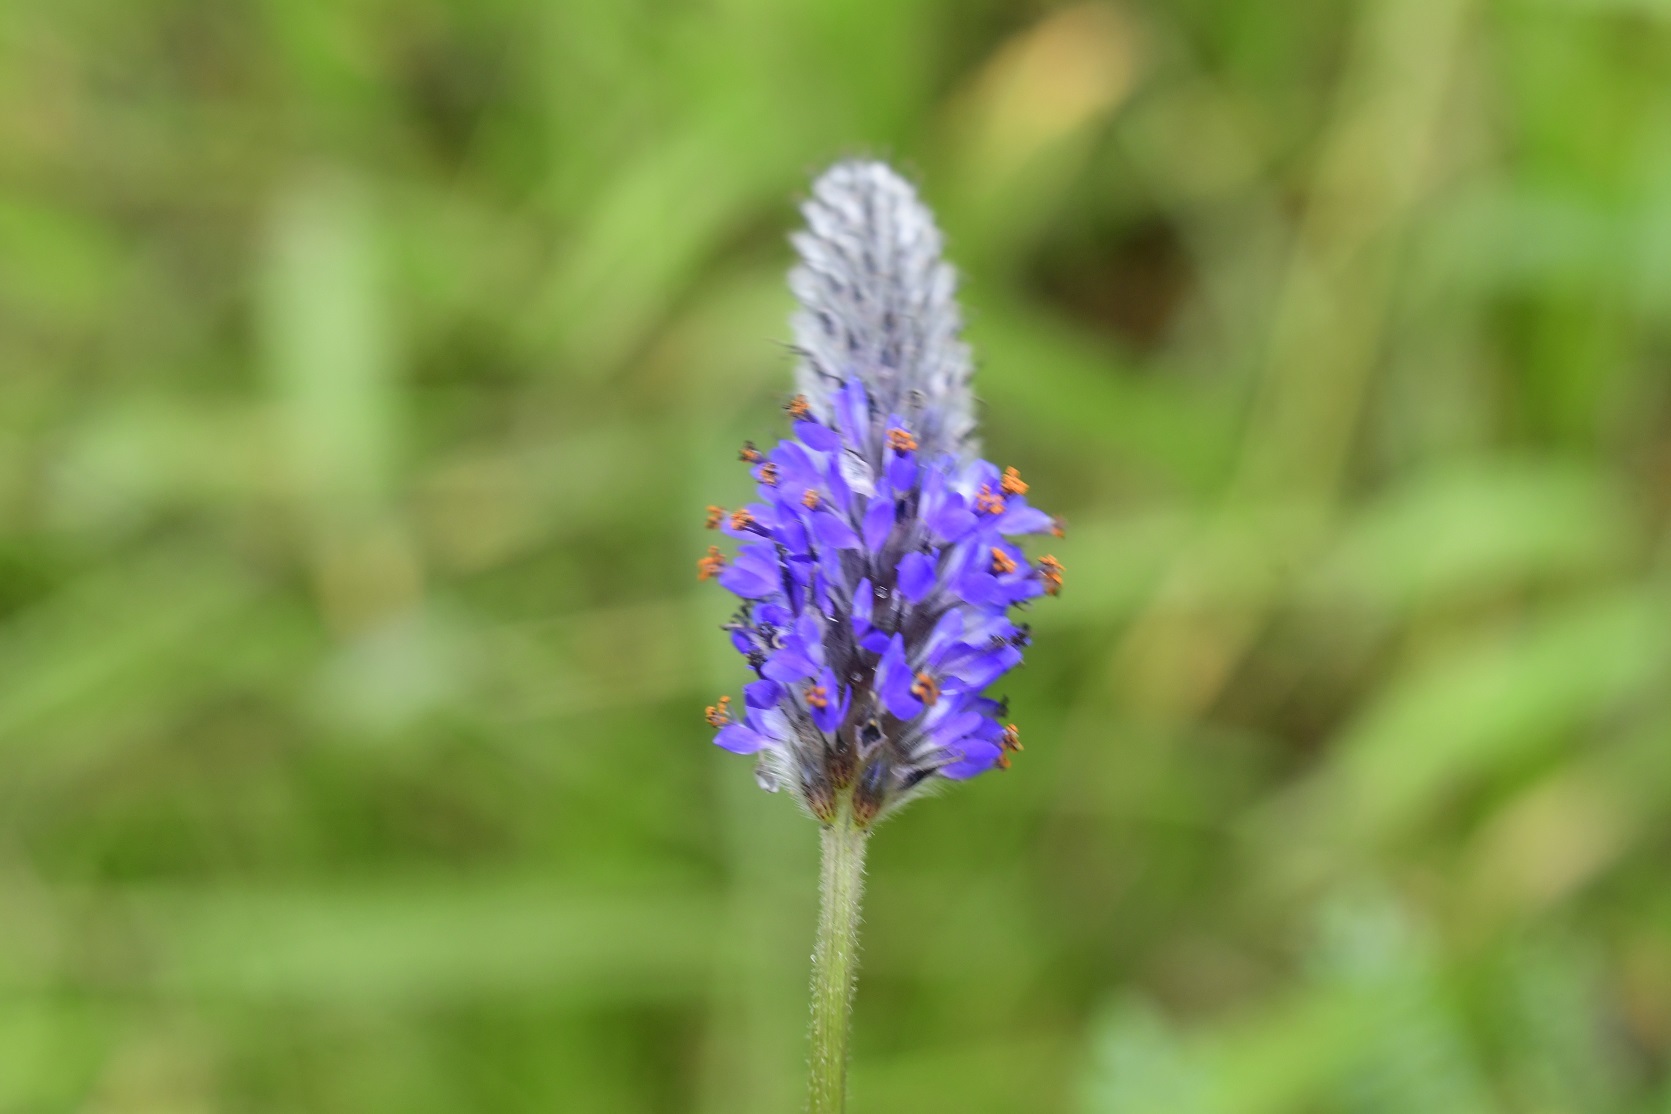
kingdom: Plantae
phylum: Tracheophyta
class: Magnoliopsida
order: Fabales
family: Fabaceae
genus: Dalea
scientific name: Dalea leporina
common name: Foxtail dalea
